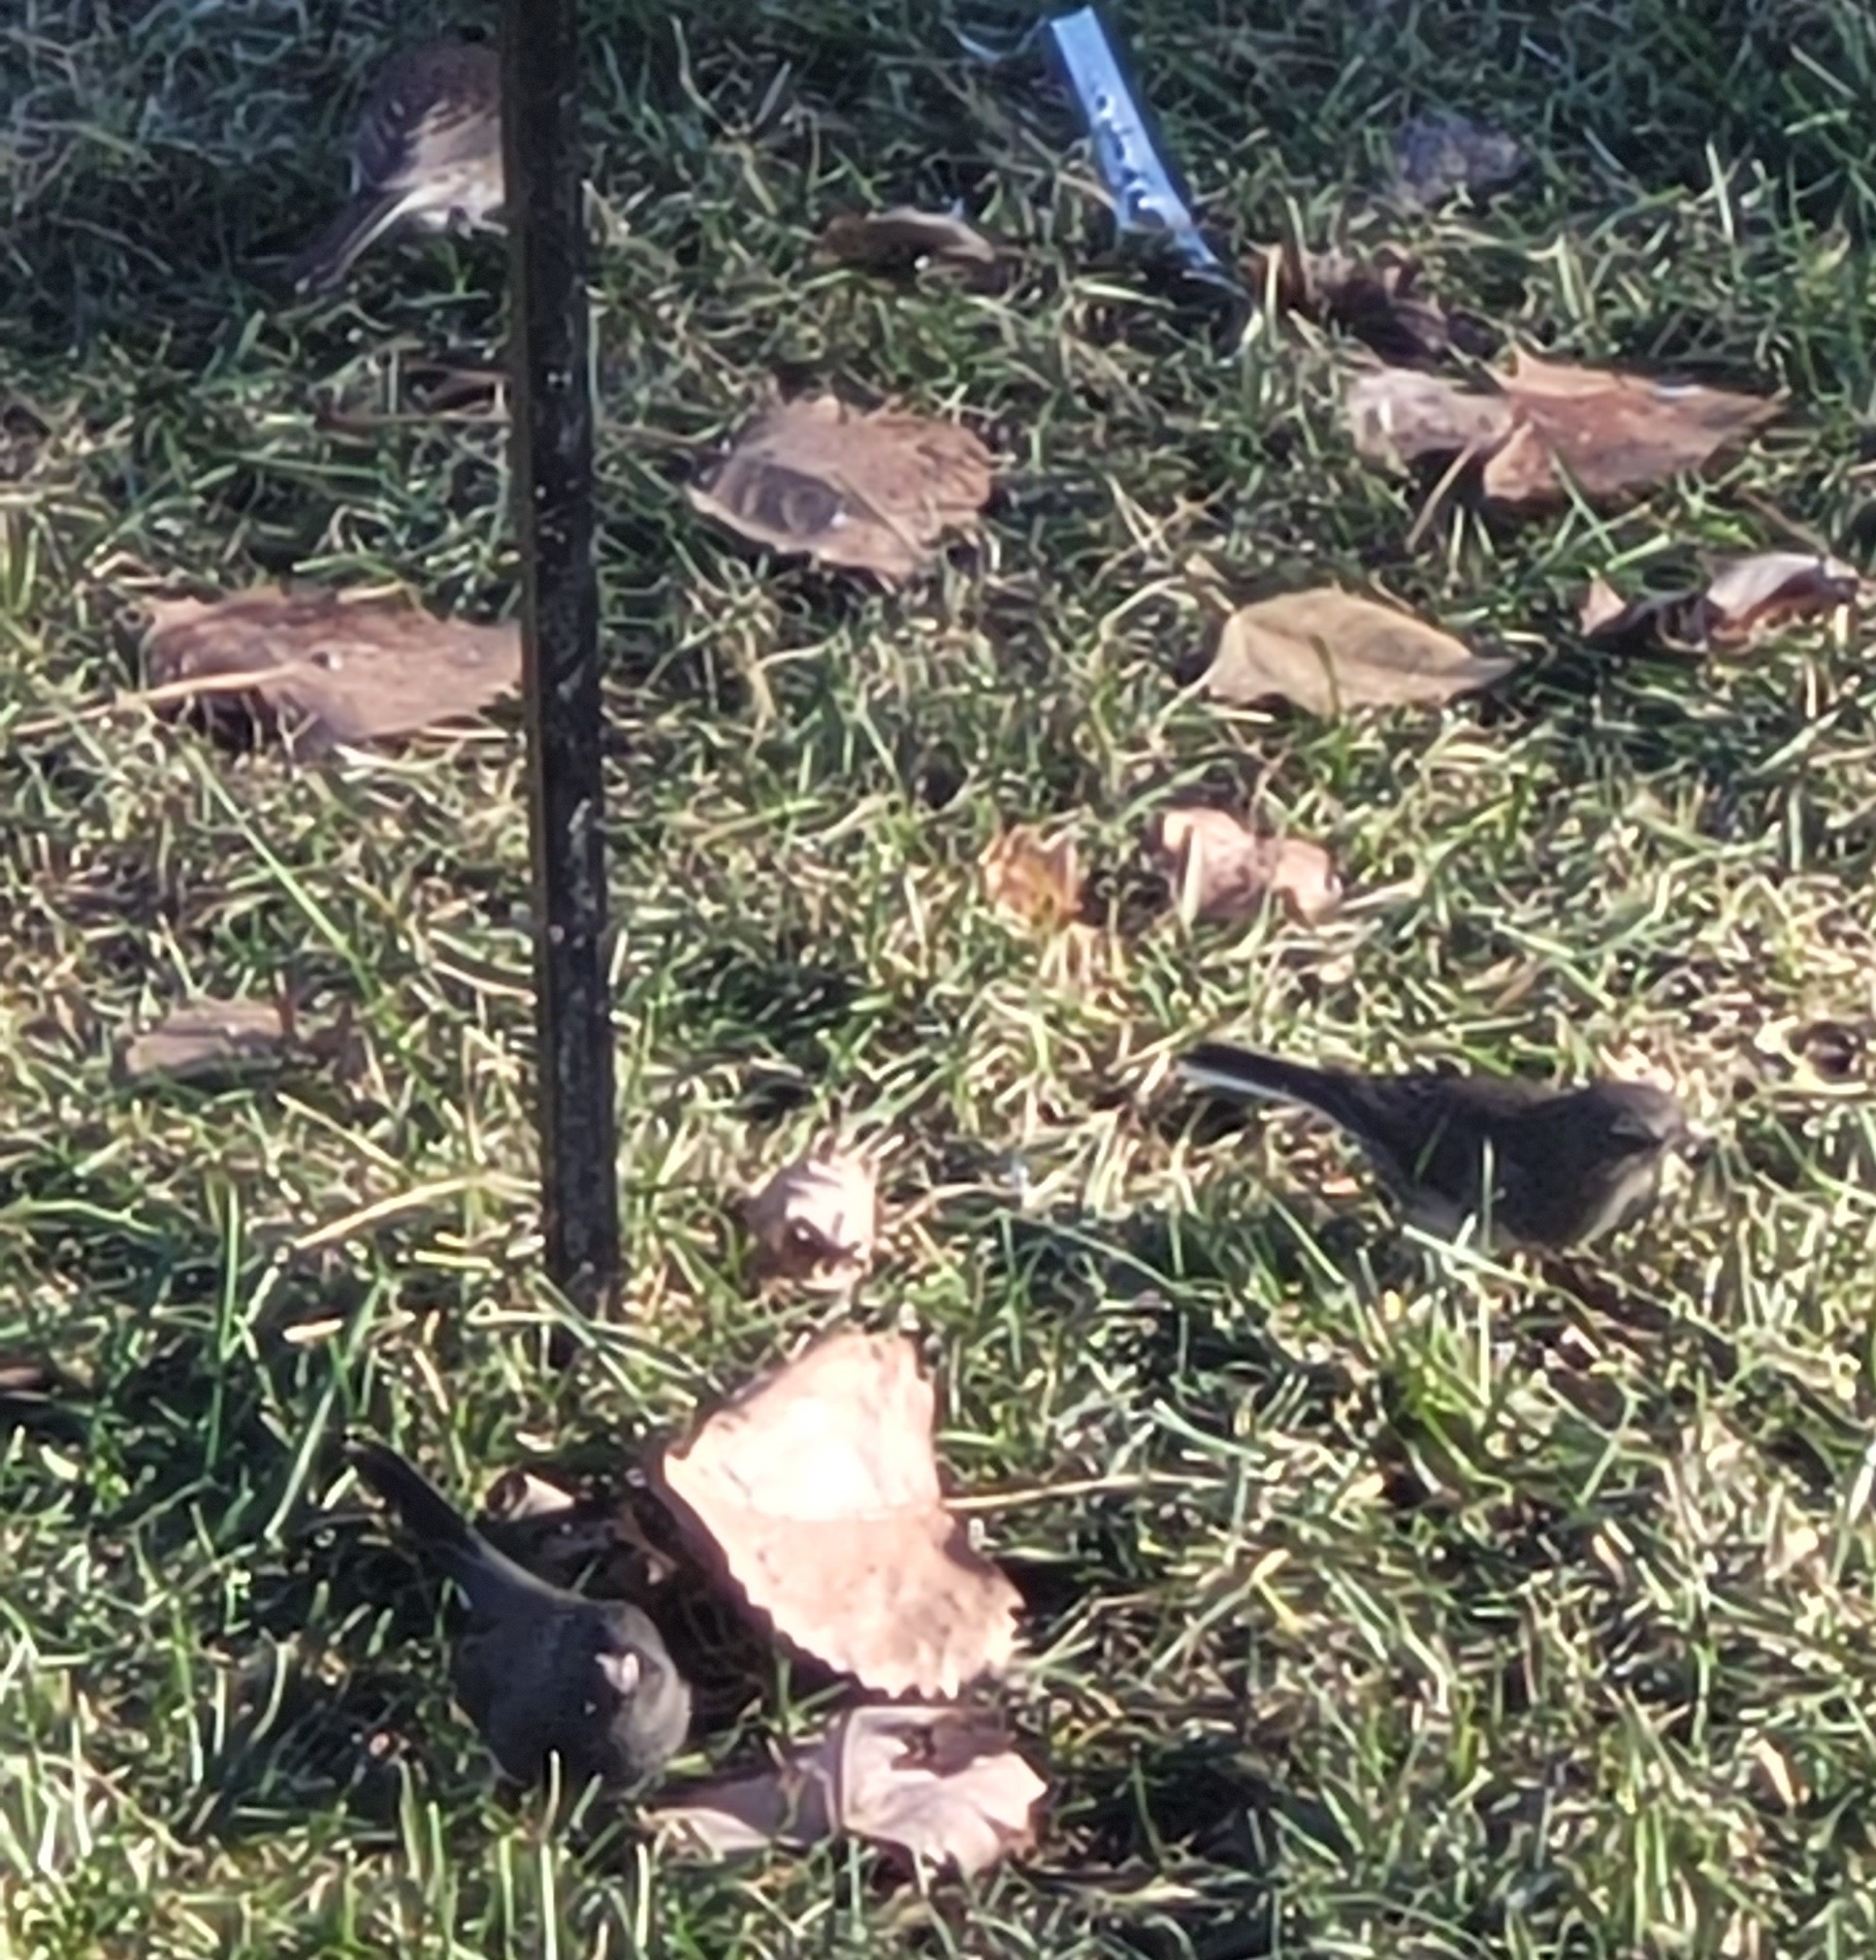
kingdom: Animalia
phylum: Chordata
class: Aves
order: Passeriformes
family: Passerellidae
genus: Junco
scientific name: Junco hyemalis
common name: Dark-eyed junco
